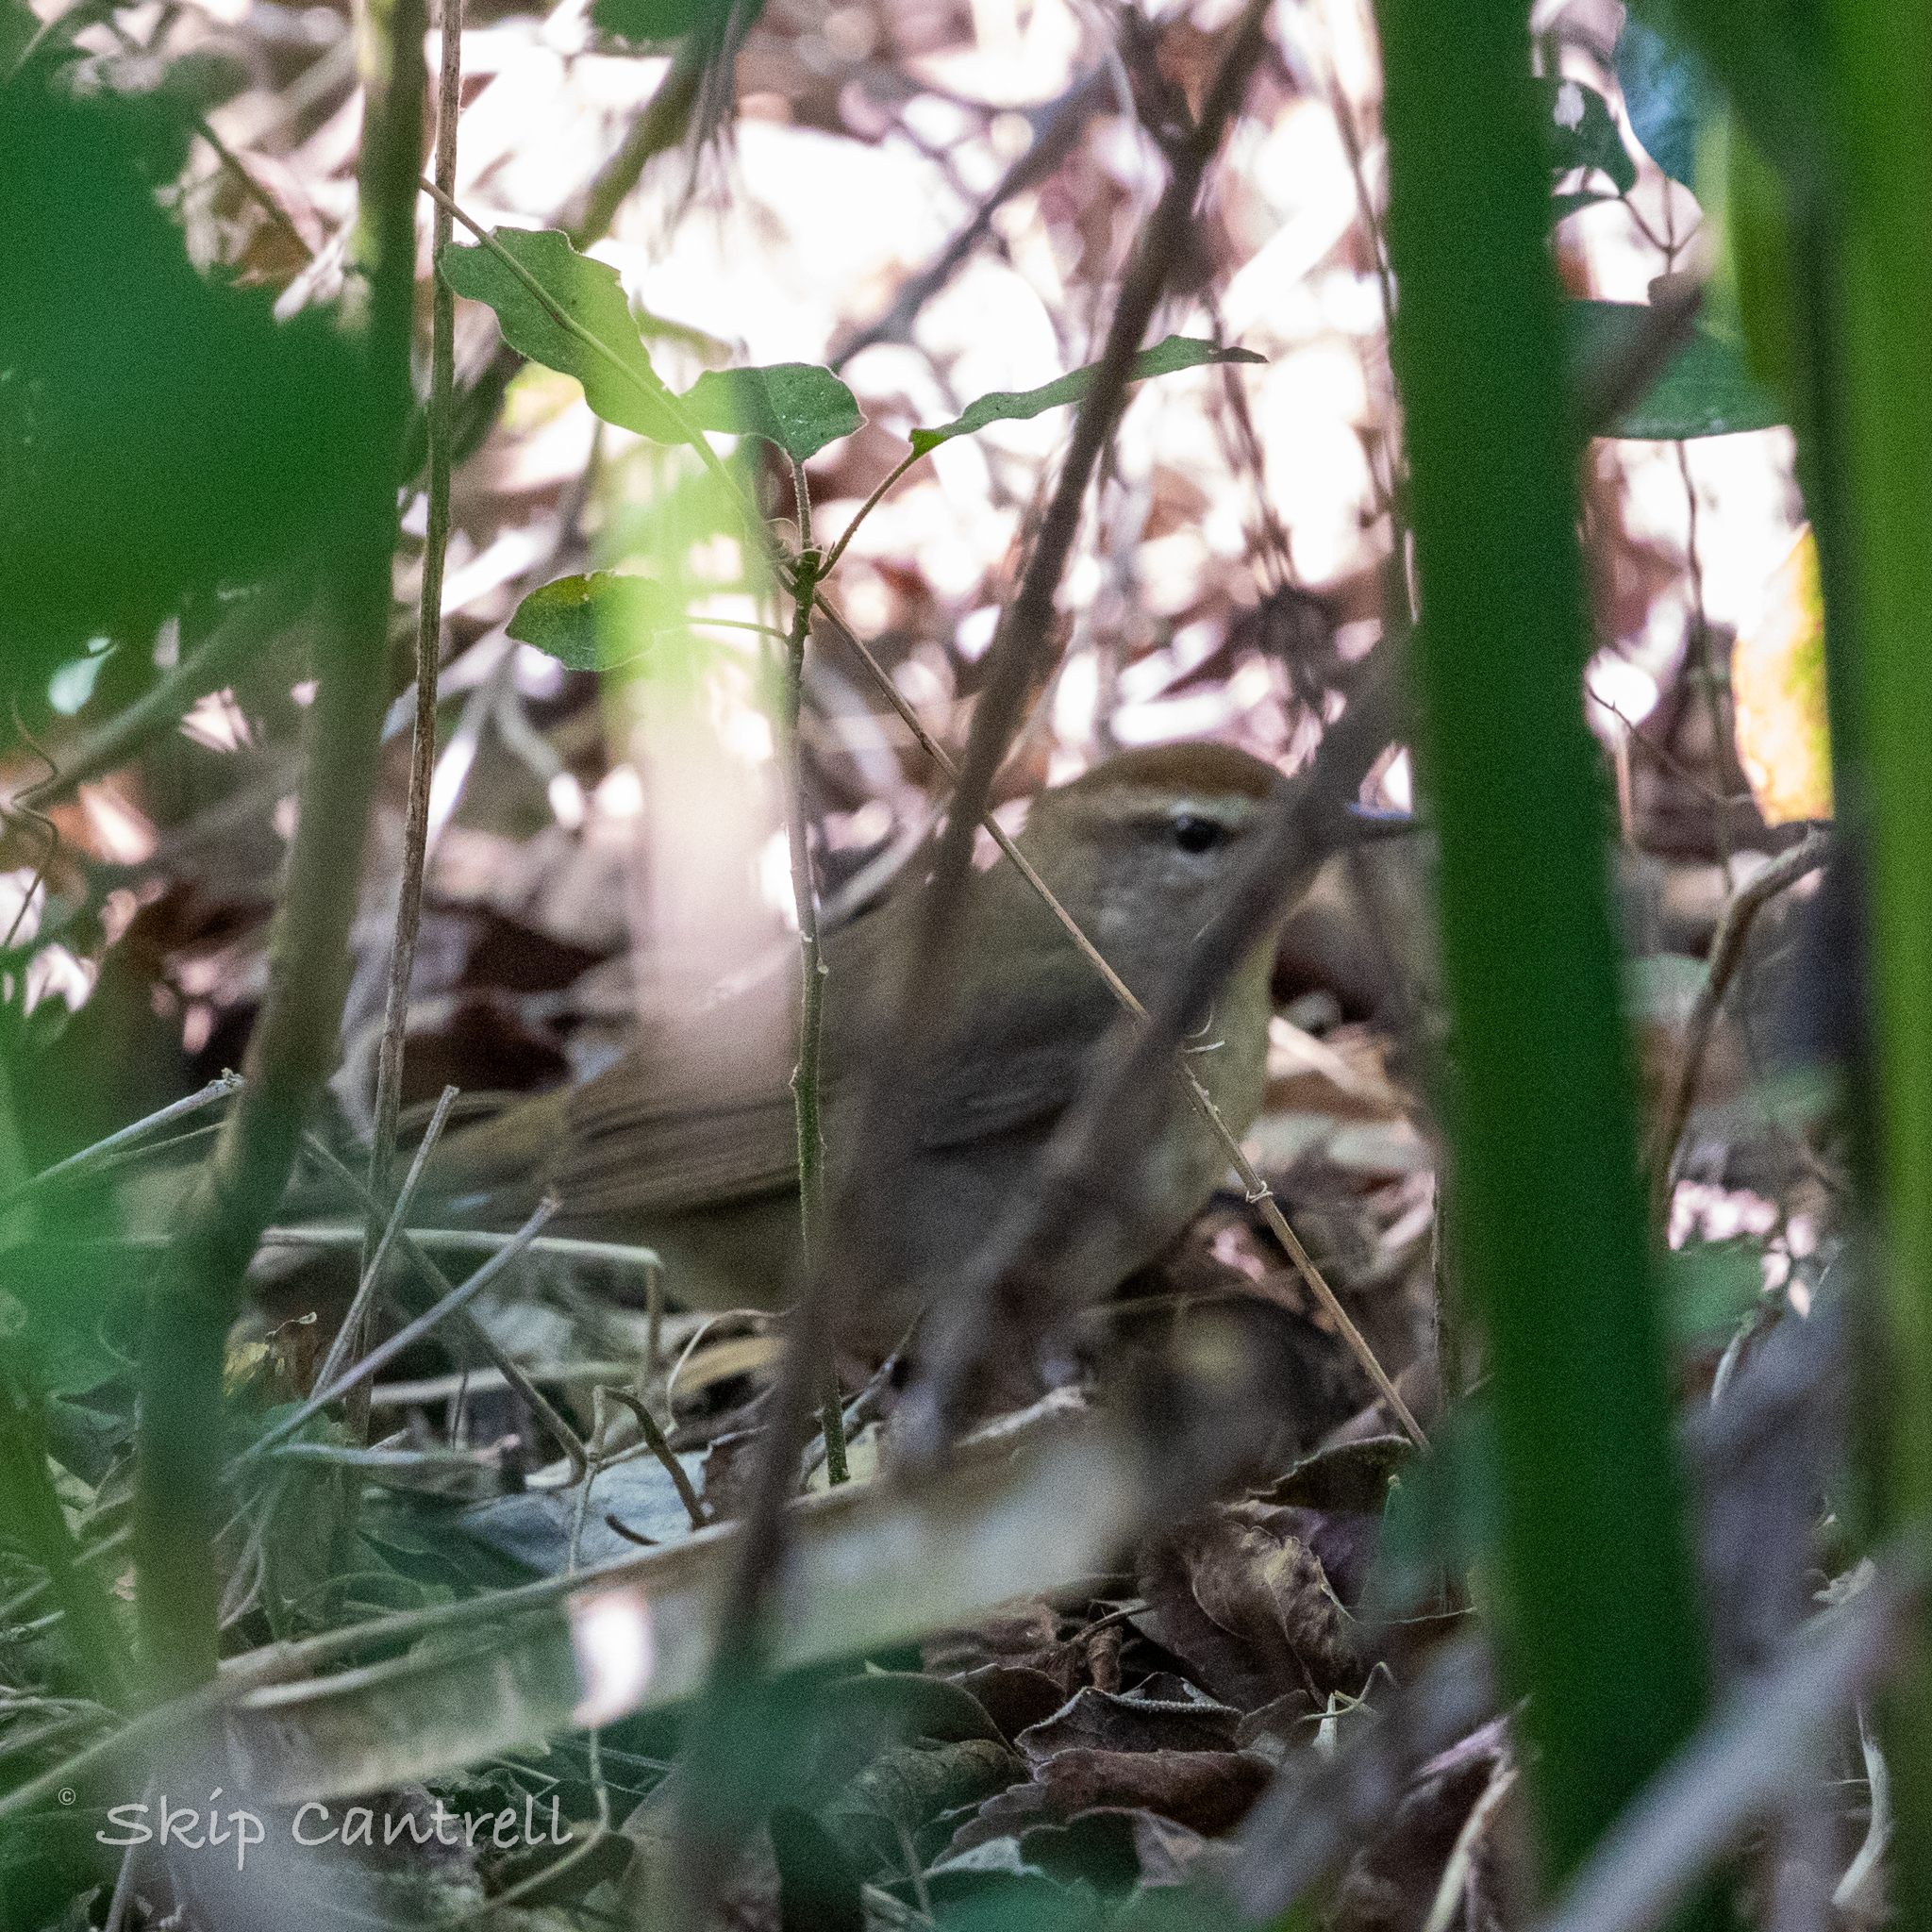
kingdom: Animalia
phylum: Chordata
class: Aves
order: Passeriformes
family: Parulidae
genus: Limnothlypis
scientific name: Limnothlypis swainsonii
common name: Swainson's warbler
